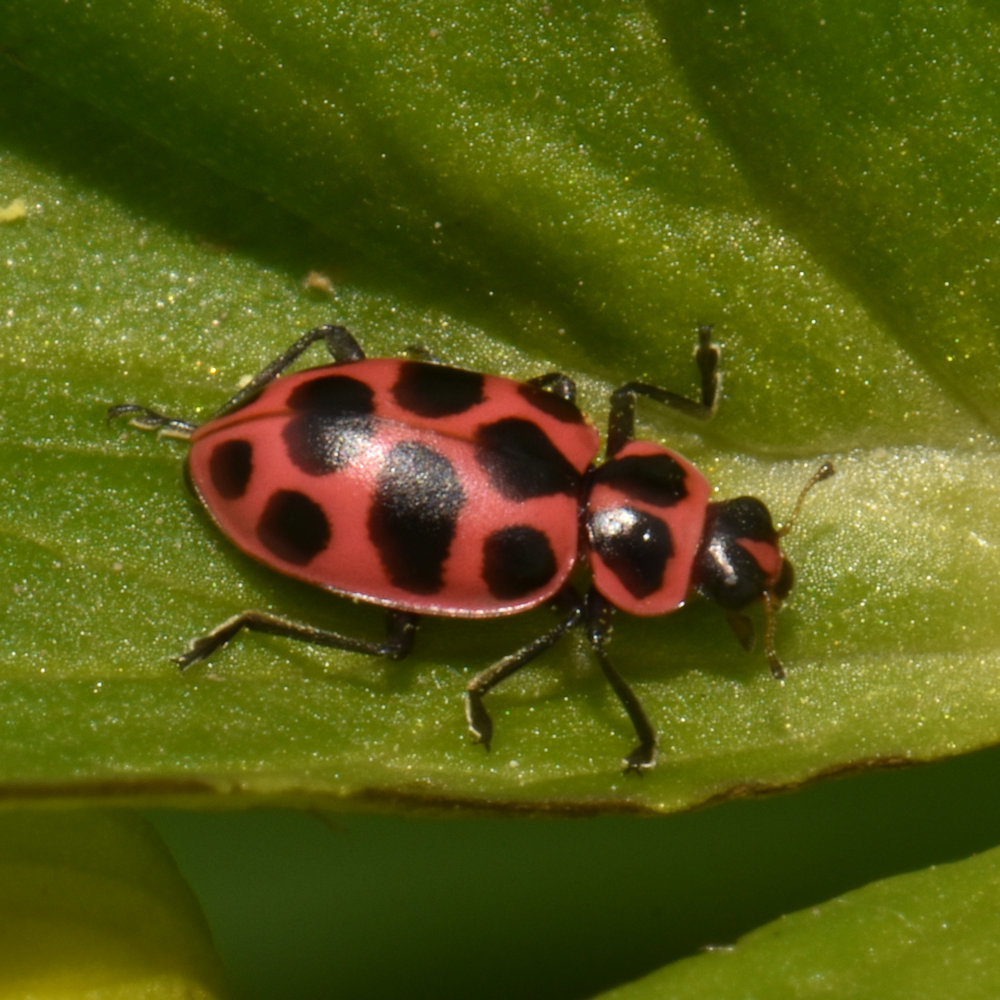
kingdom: Animalia
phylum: Arthropoda
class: Insecta
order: Coleoptera
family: Coccinellidae
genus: Coleomegilla
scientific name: Coleomegilla maculata
